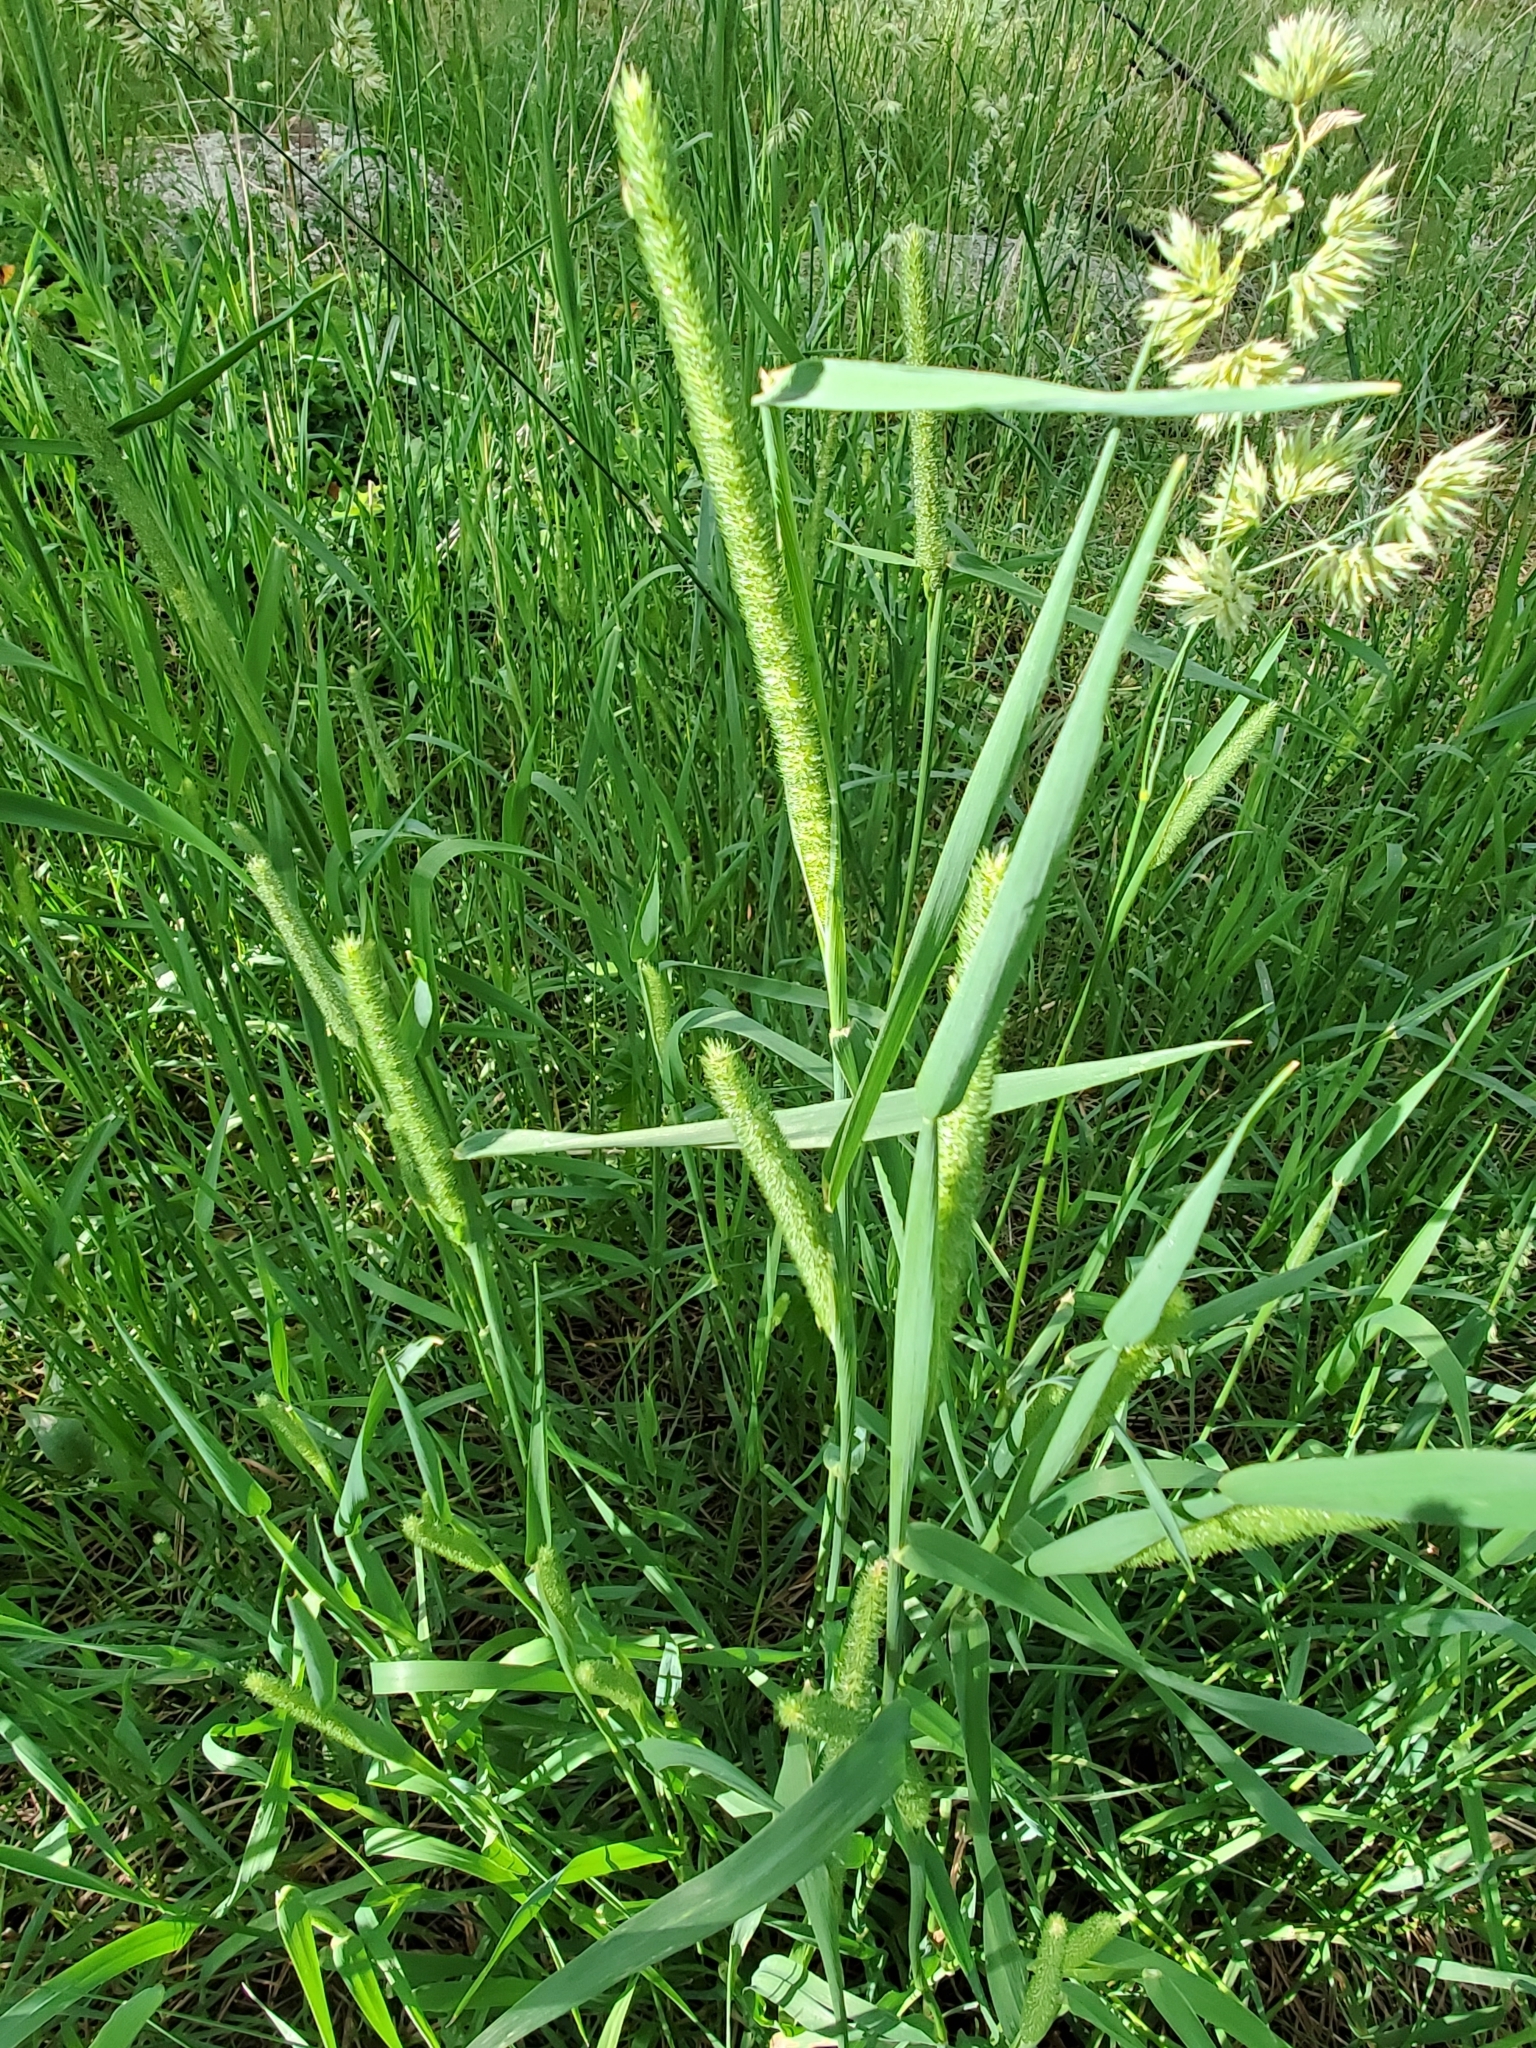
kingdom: Plantae
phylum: Tracheophyta
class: Liliopsida
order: Poales
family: Poaceae
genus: Phleum
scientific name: Phleum pratense
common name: Timothy grass
